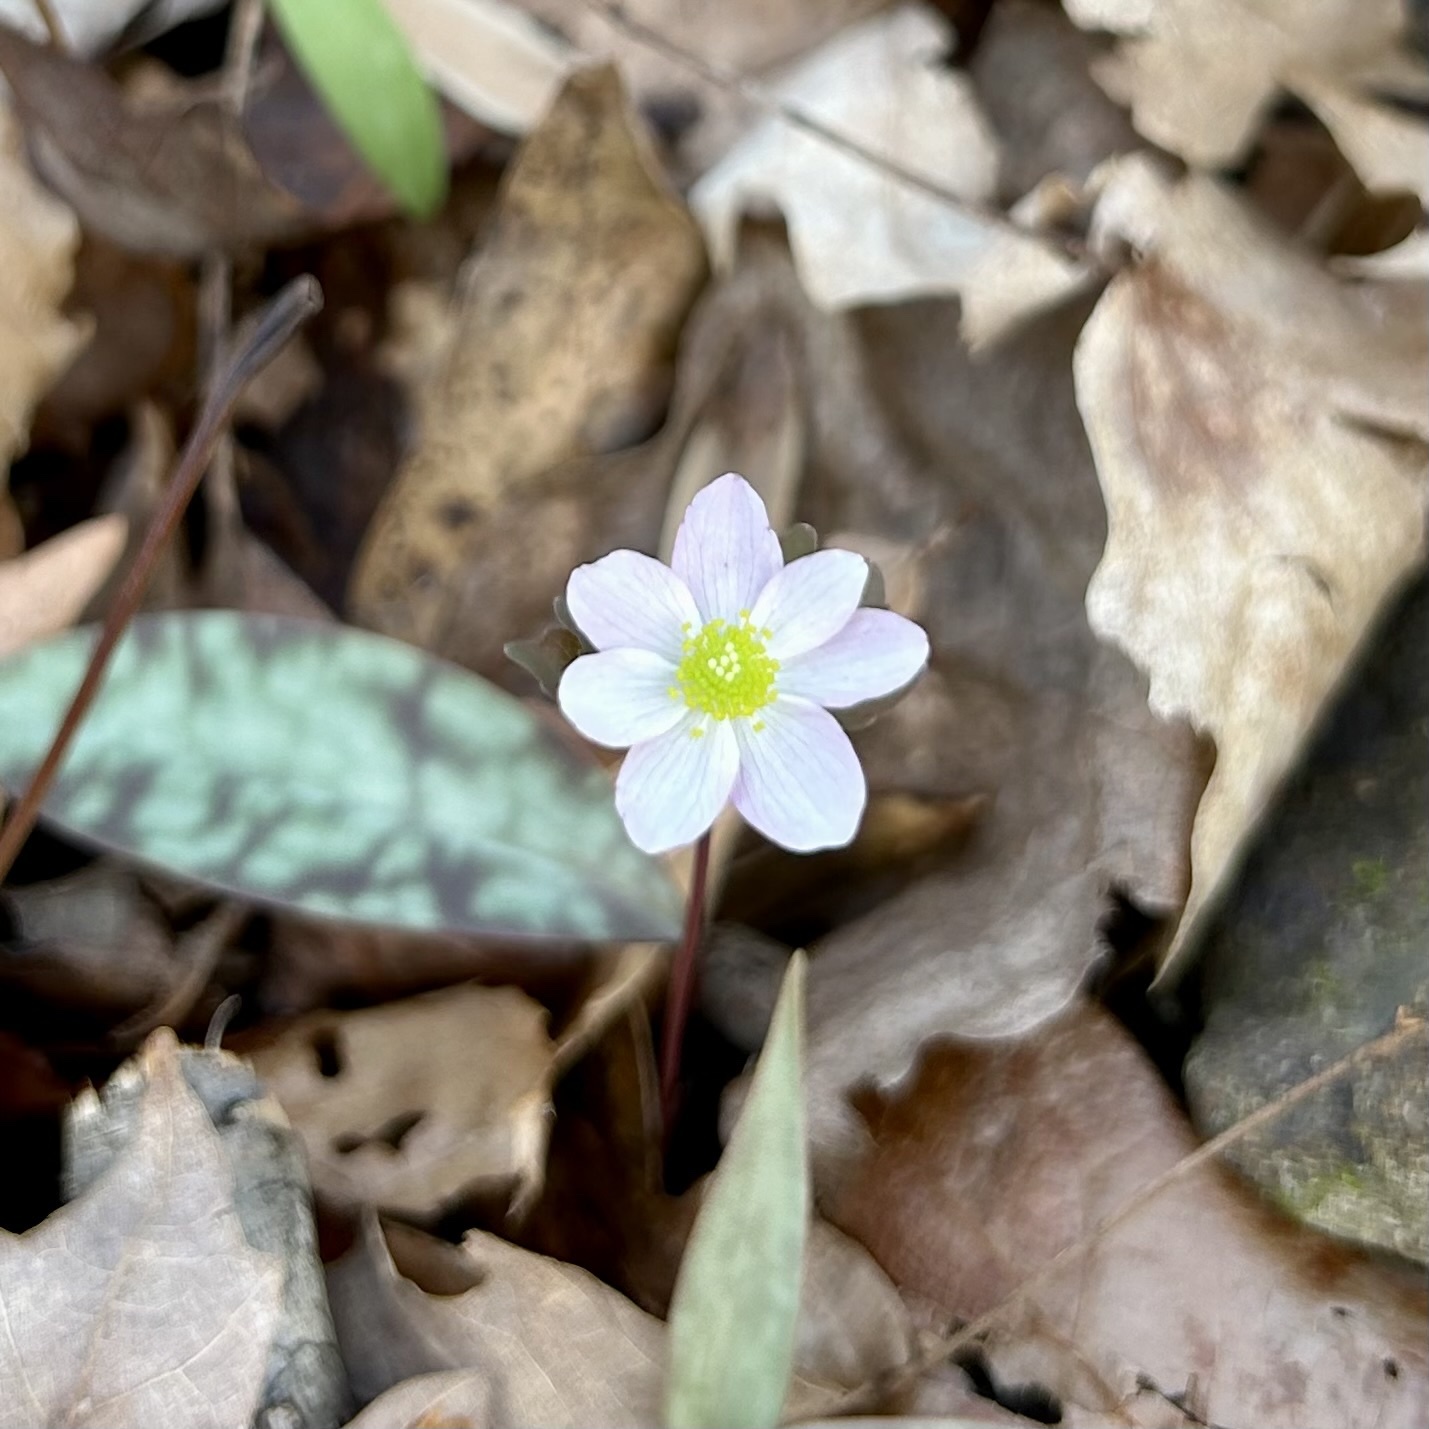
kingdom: Plantae
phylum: Tracheophyta
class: Magnoliopsida
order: Ranunculales
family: Ranunculaceae
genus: Thalictrum
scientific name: Thalictrum thalictroides
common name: Rue-anemone
